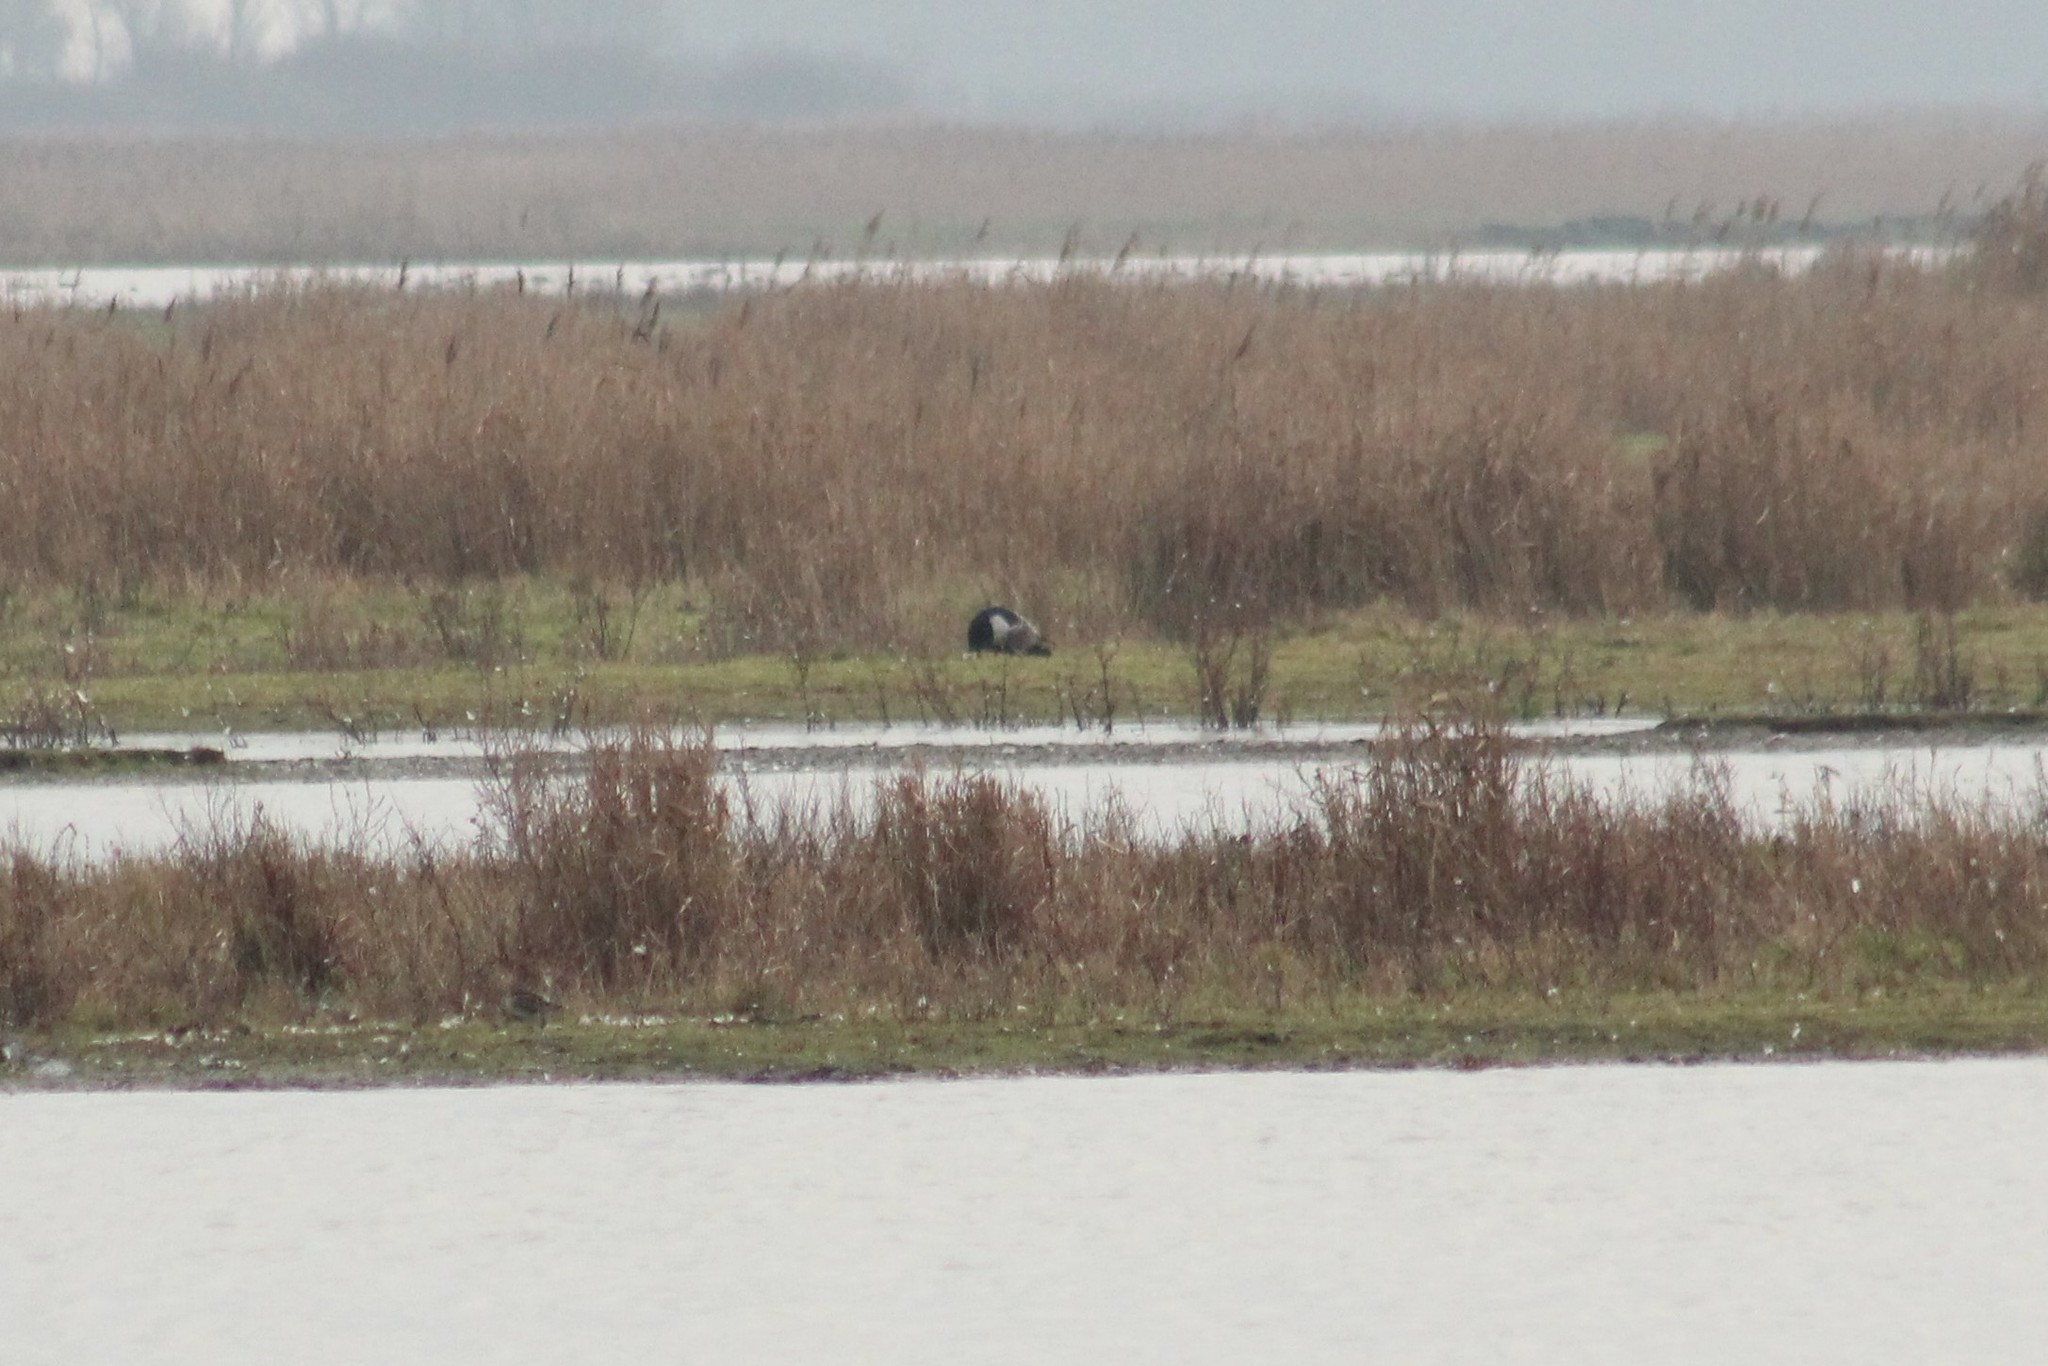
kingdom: Animalia
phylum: Chordata
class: Aves
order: Anseriformes
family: Anatidae
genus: Branta
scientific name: Branta leucopsis
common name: Barnacle goose
